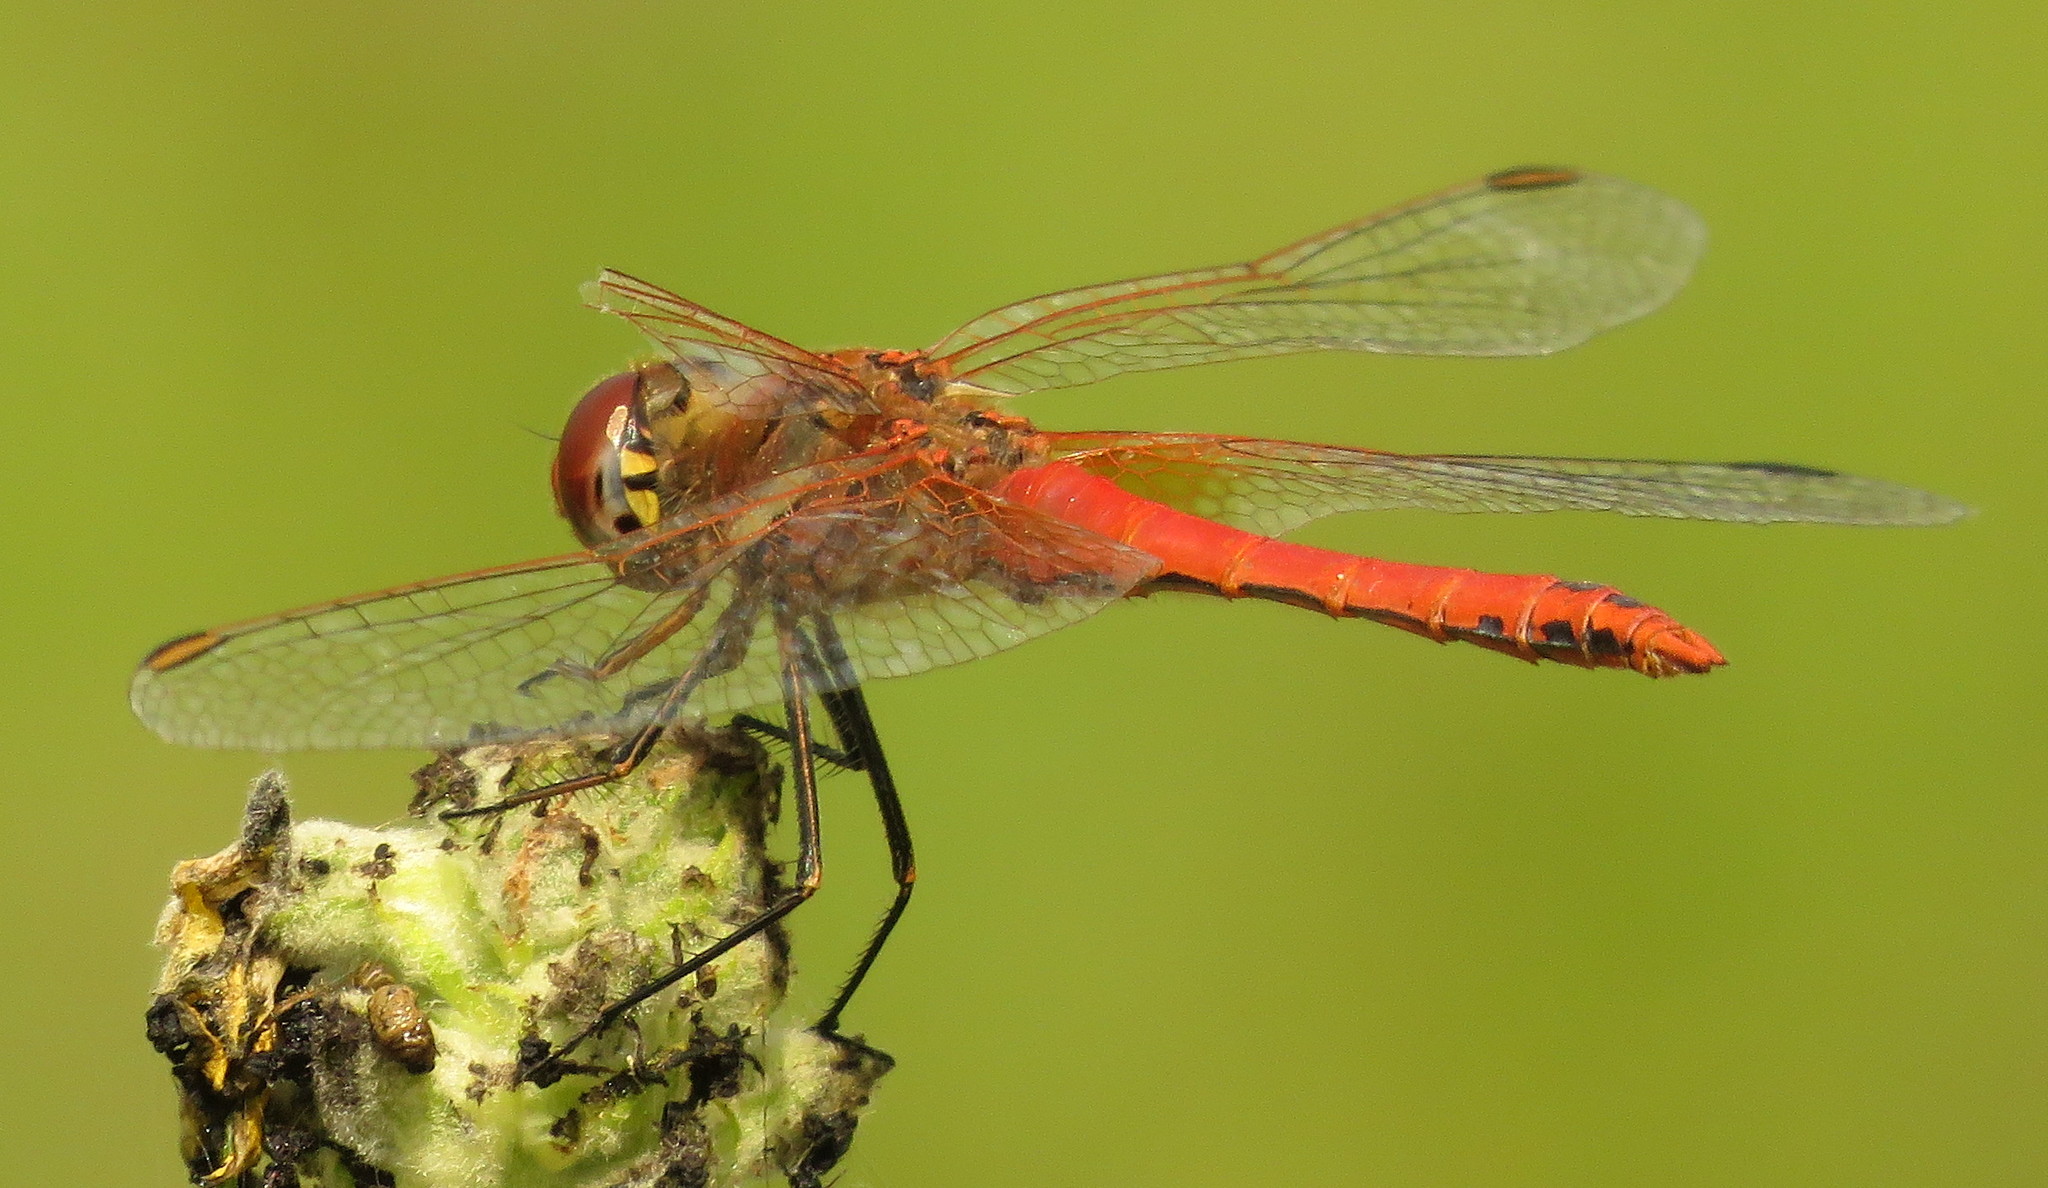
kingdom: Animalia
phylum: Arthropoda
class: Insecta
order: Odonata
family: Libellulidae
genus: Sympetrum
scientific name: Sympetrum fonscolombii
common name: Red-veined darter
